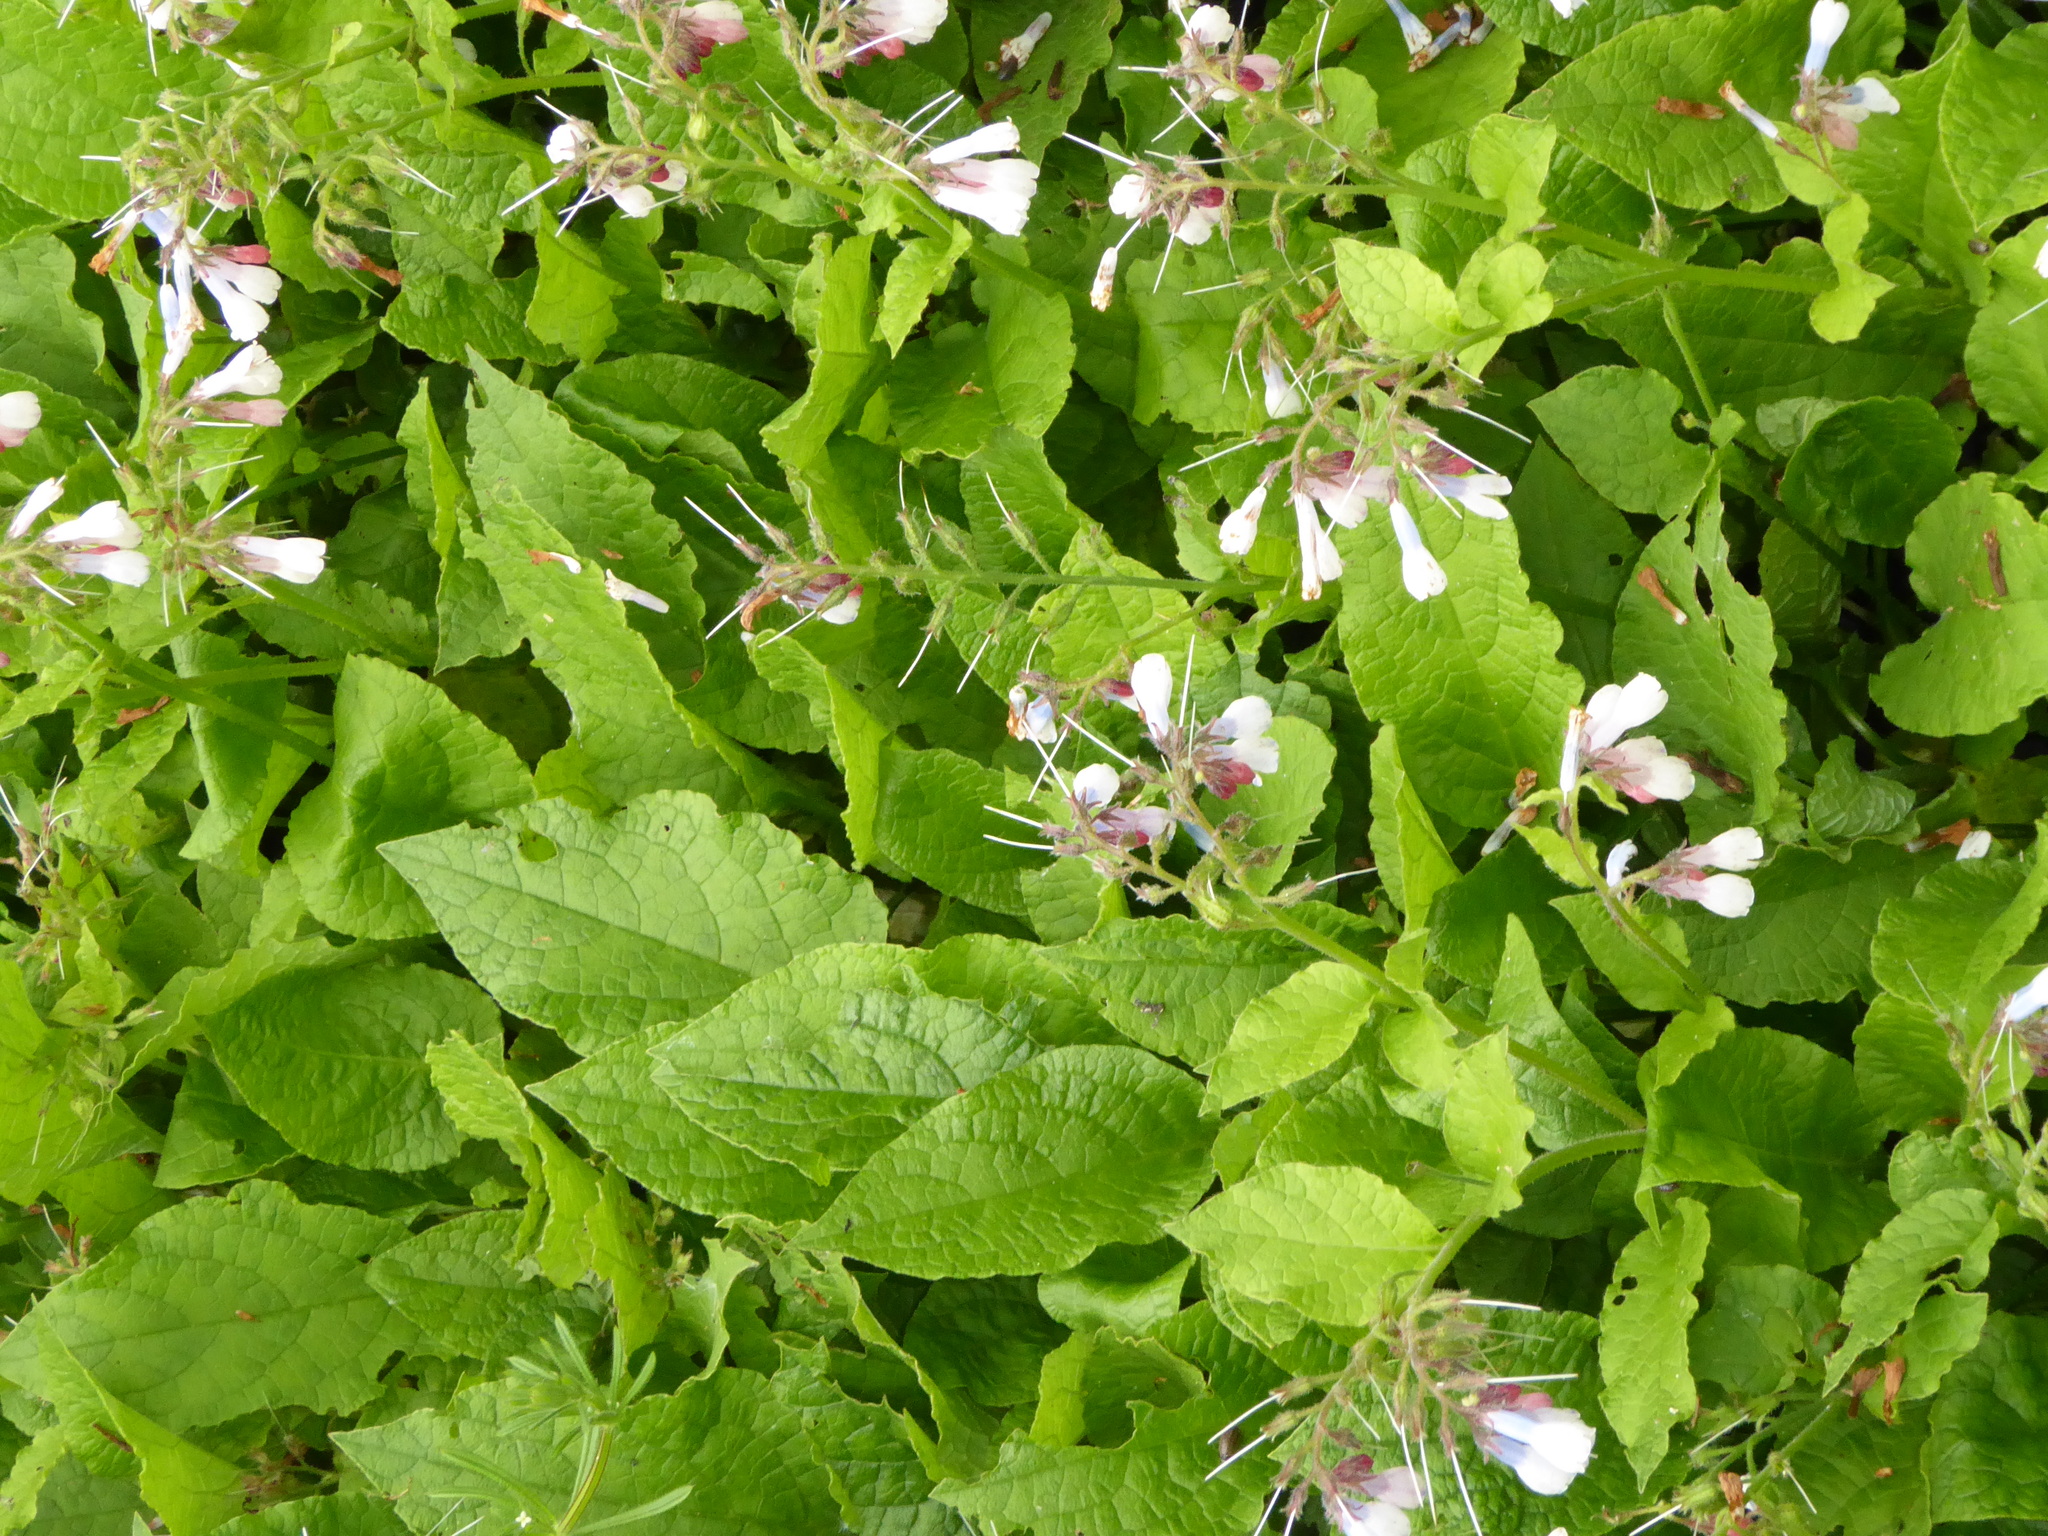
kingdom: Plantae
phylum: Tracheophyta
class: Magnoliopsida
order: Boraginales
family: Boraginaceae
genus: Symphytum
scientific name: Symphytum hidcotense
